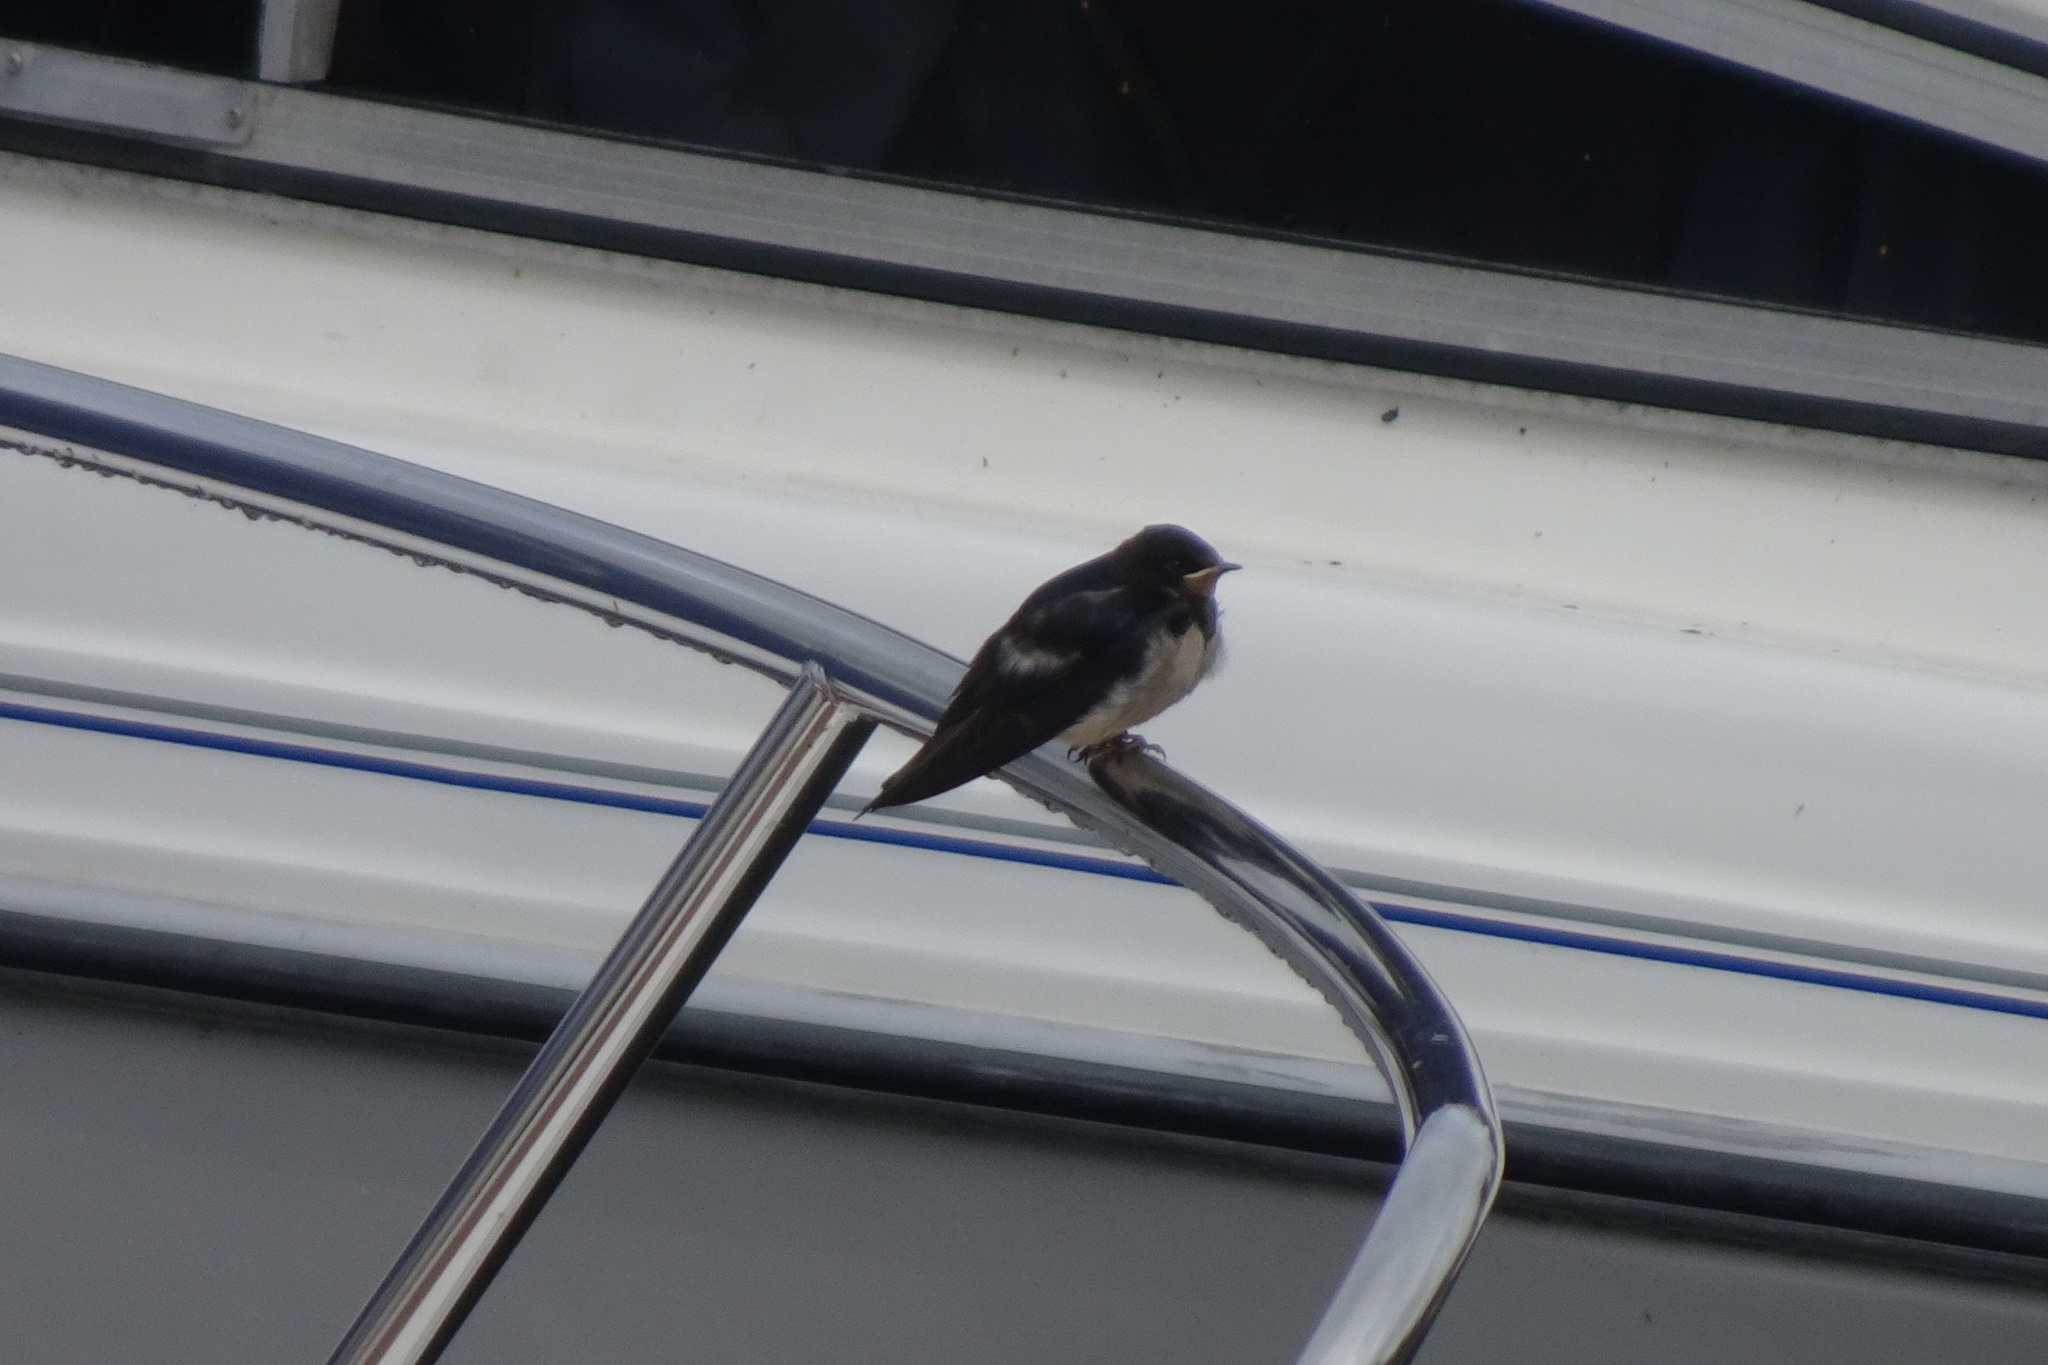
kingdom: Animalia
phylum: Chordata
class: Aves
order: Passeriformes
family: Hirundinidae
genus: Hirundo
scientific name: Hirundo rustica
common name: Barn swallow
